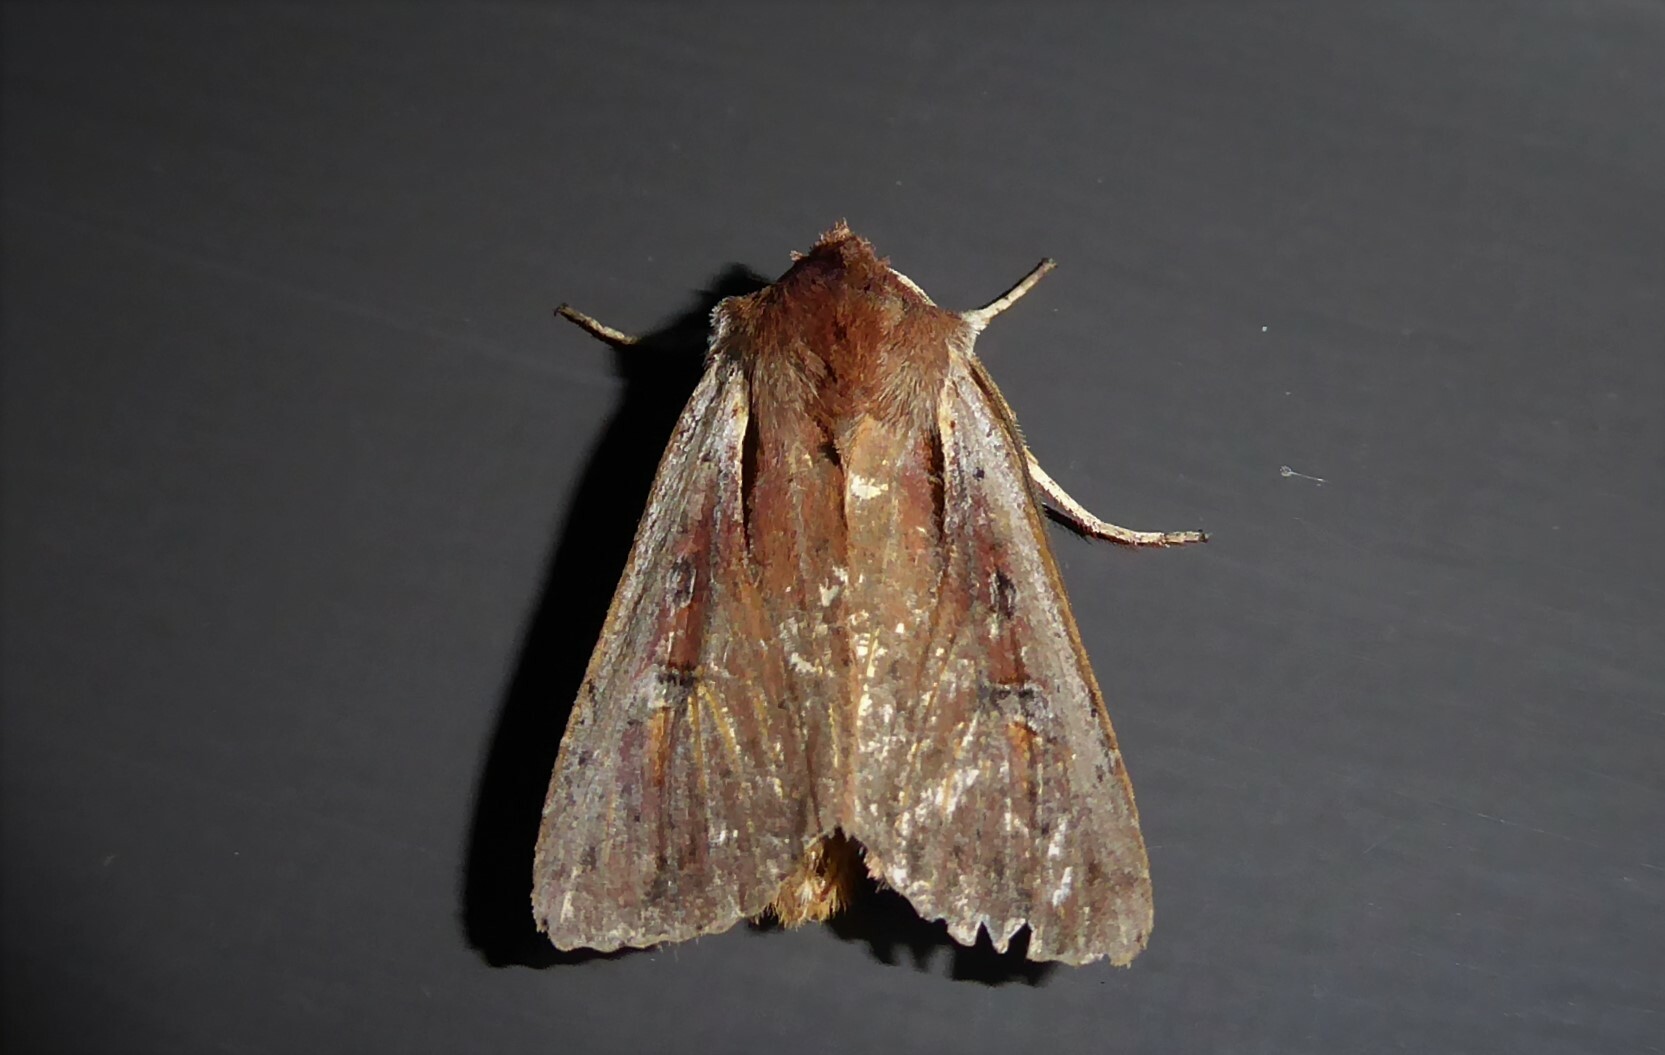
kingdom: Animalia
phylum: Arthropoda
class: Insecta
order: Lepidoptera
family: Noctuidae
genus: Ichneutica
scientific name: Ichneutica atristriga
